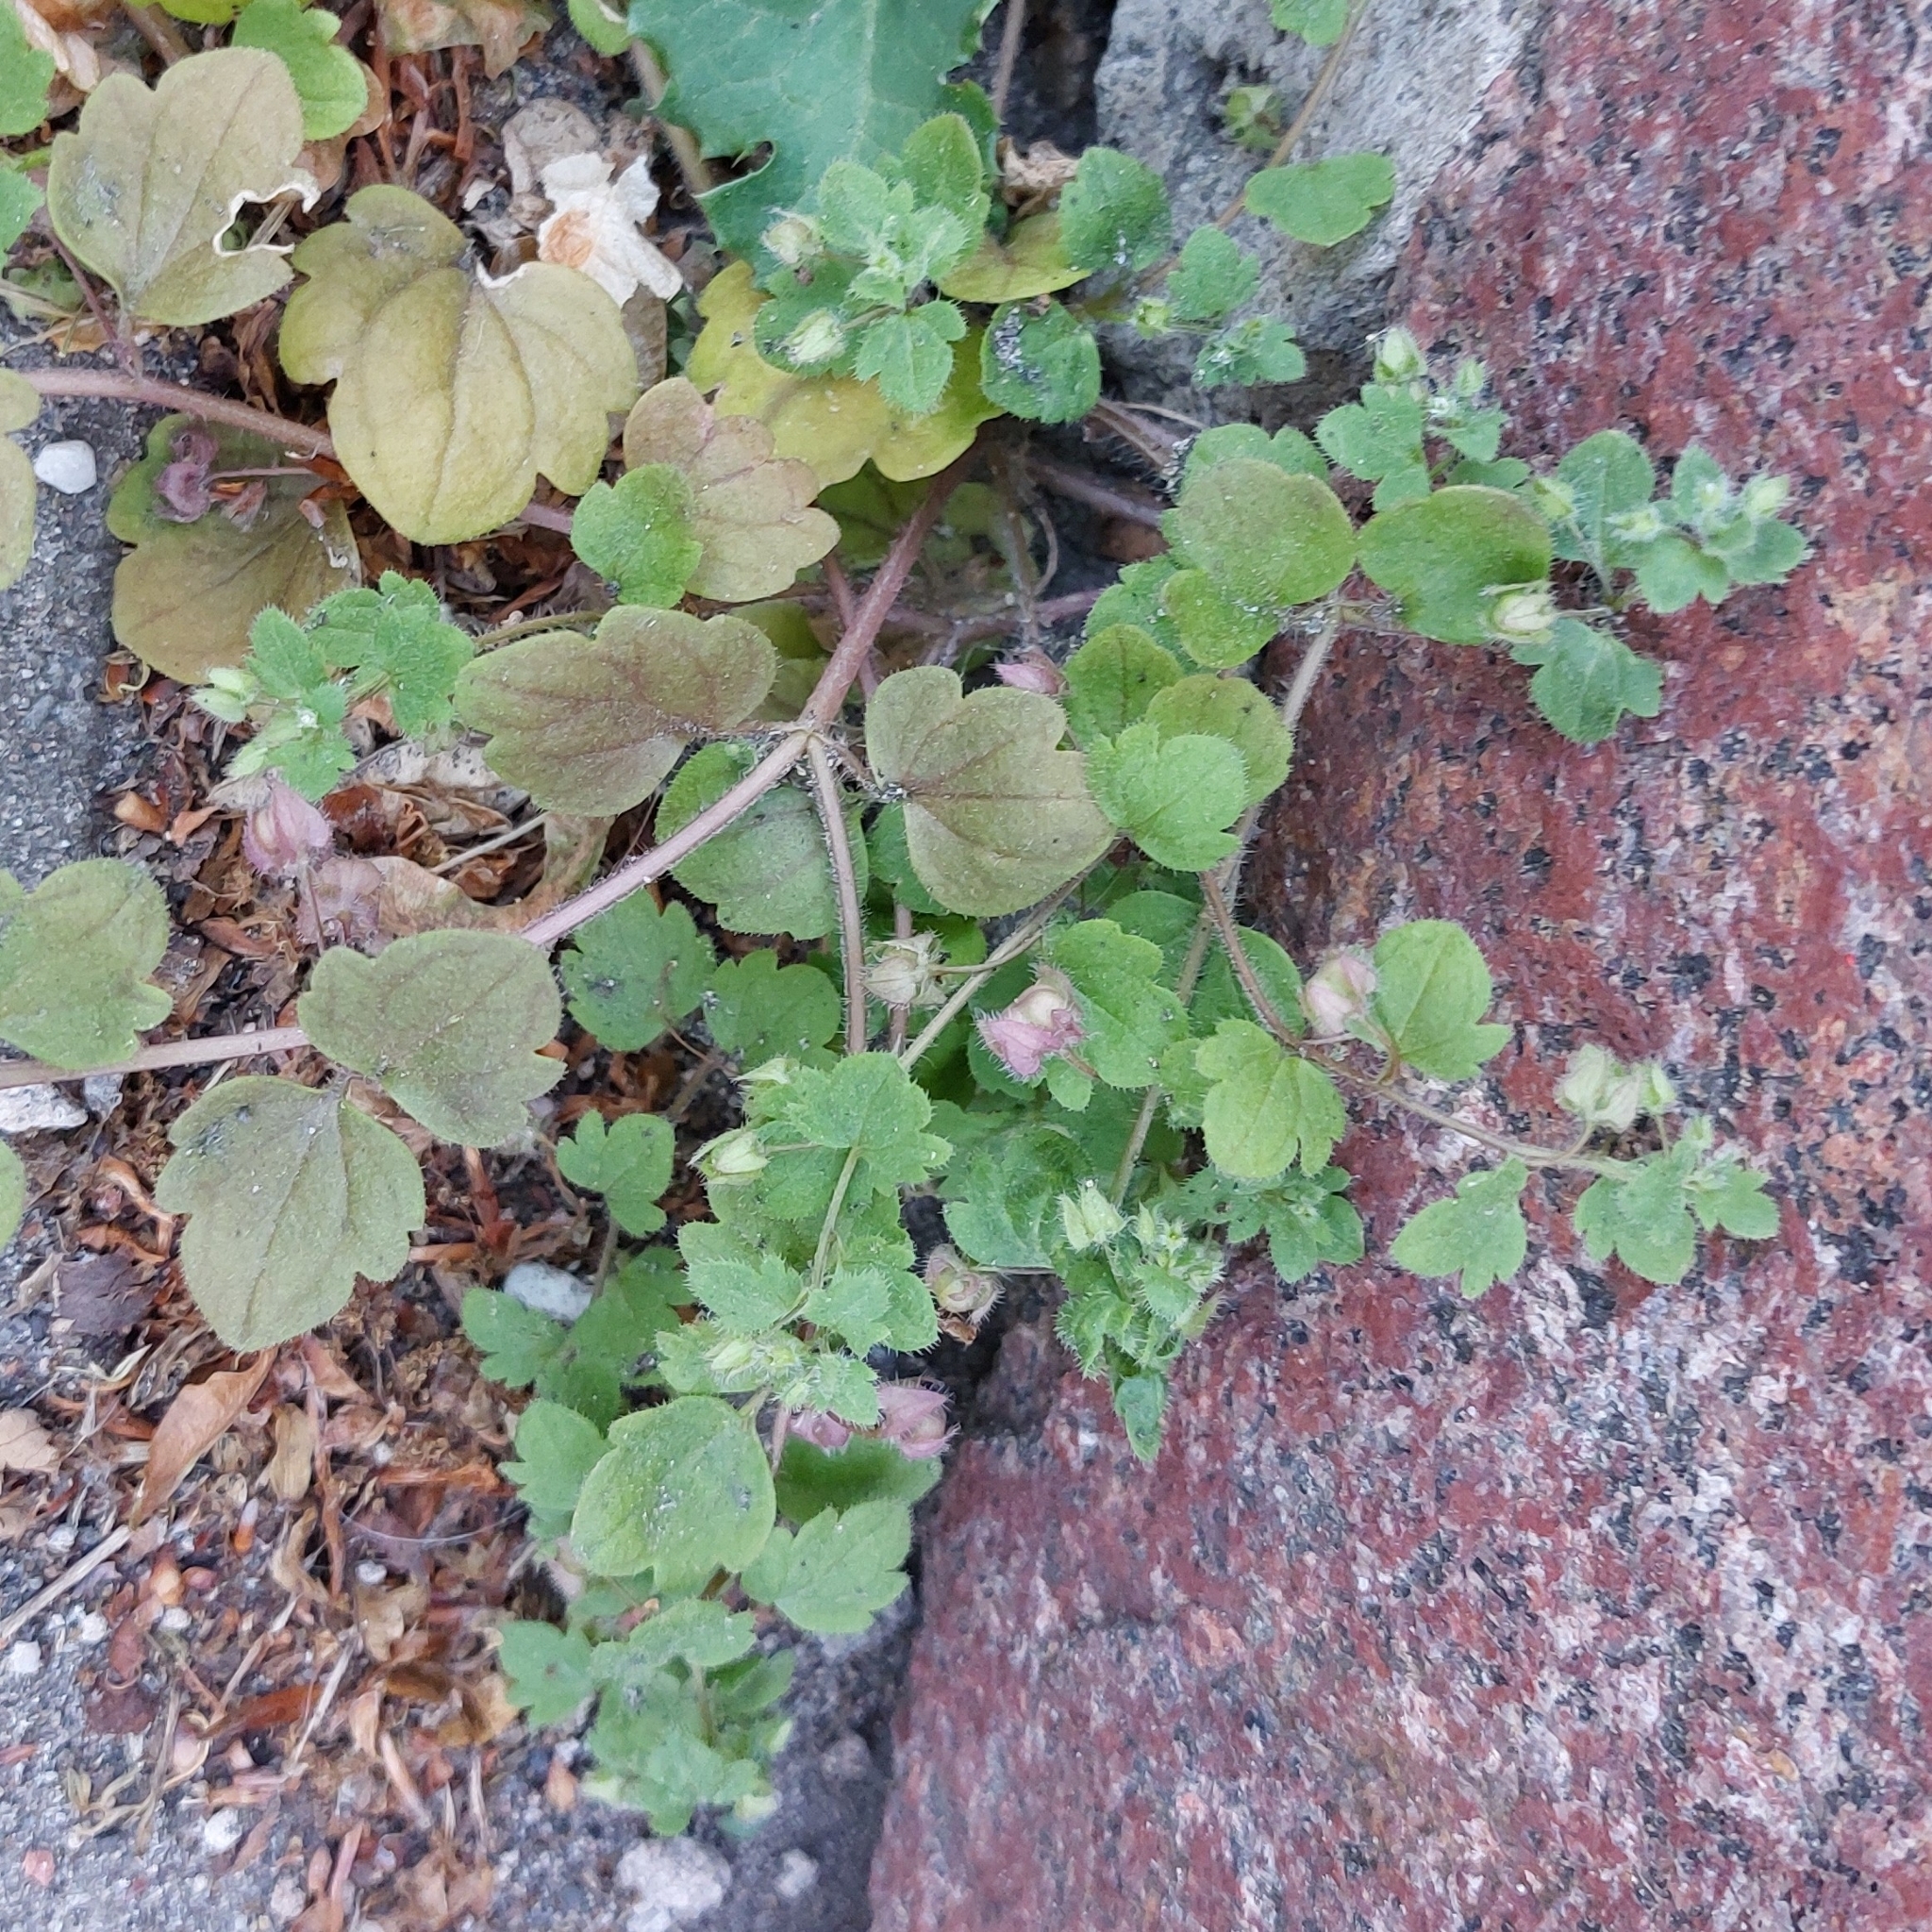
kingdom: Plantae
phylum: Tracheophyta
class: Magnoliopsida
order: Lamiales
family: Plantaginaceae
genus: Veronica
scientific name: Veronica hederifolia
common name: Ivy-leaved speedwell
